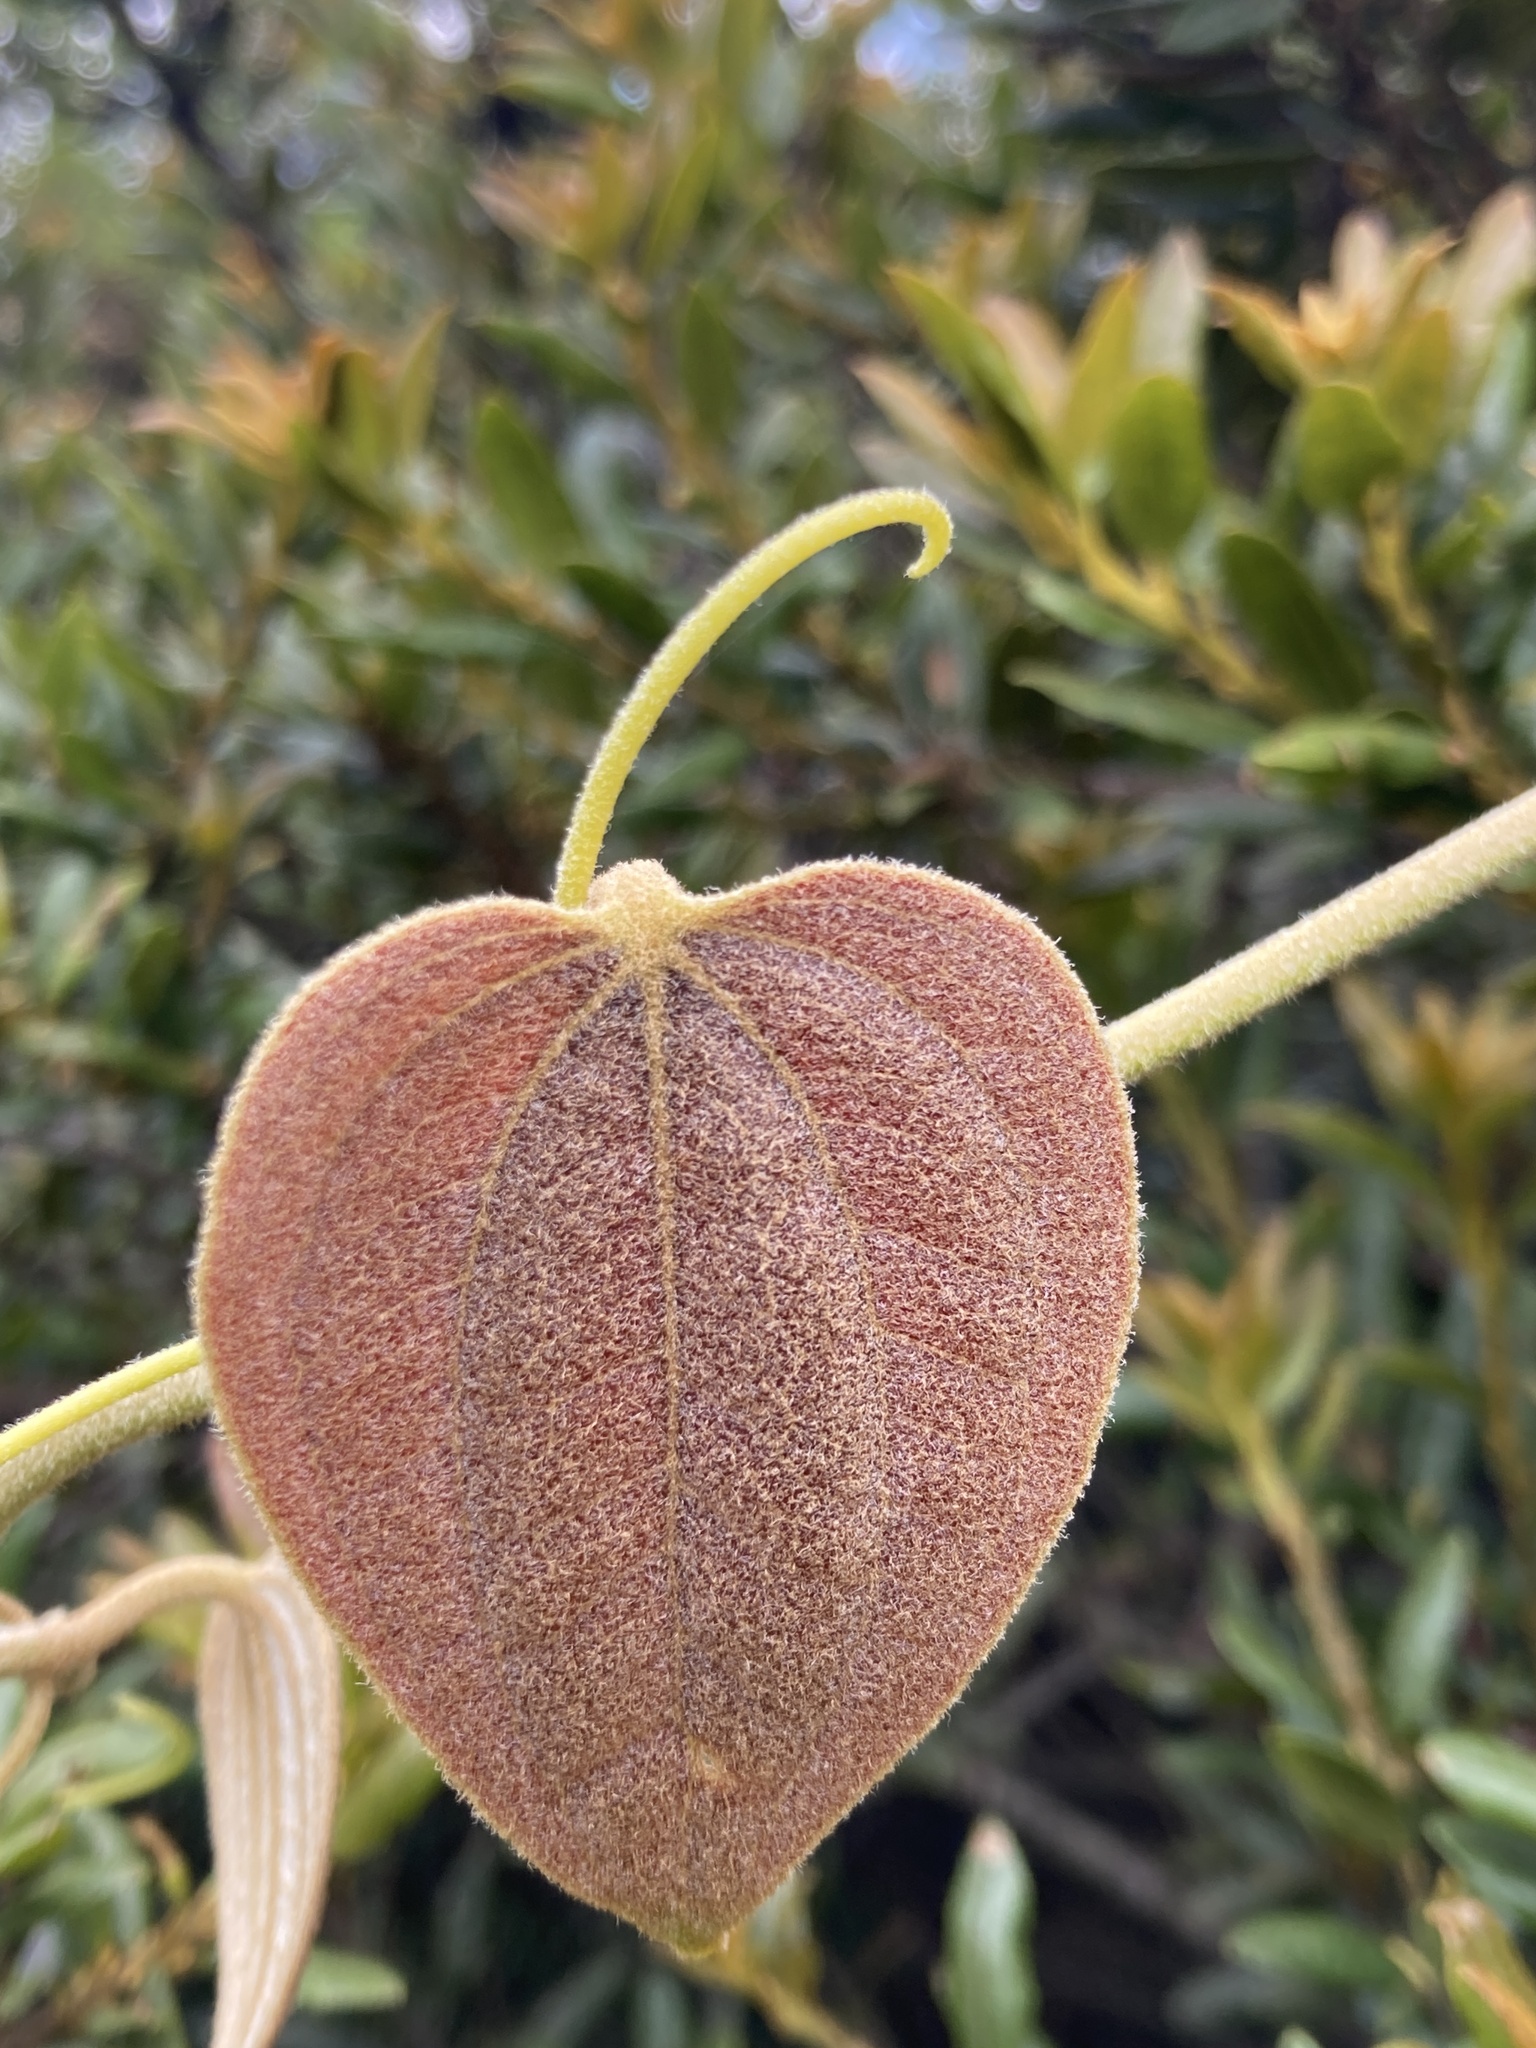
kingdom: Plantae
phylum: Tracheophyta
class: Liliopsida
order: Liliales
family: Smilacaceae
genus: Smilax
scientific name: Smilax tomentosa
